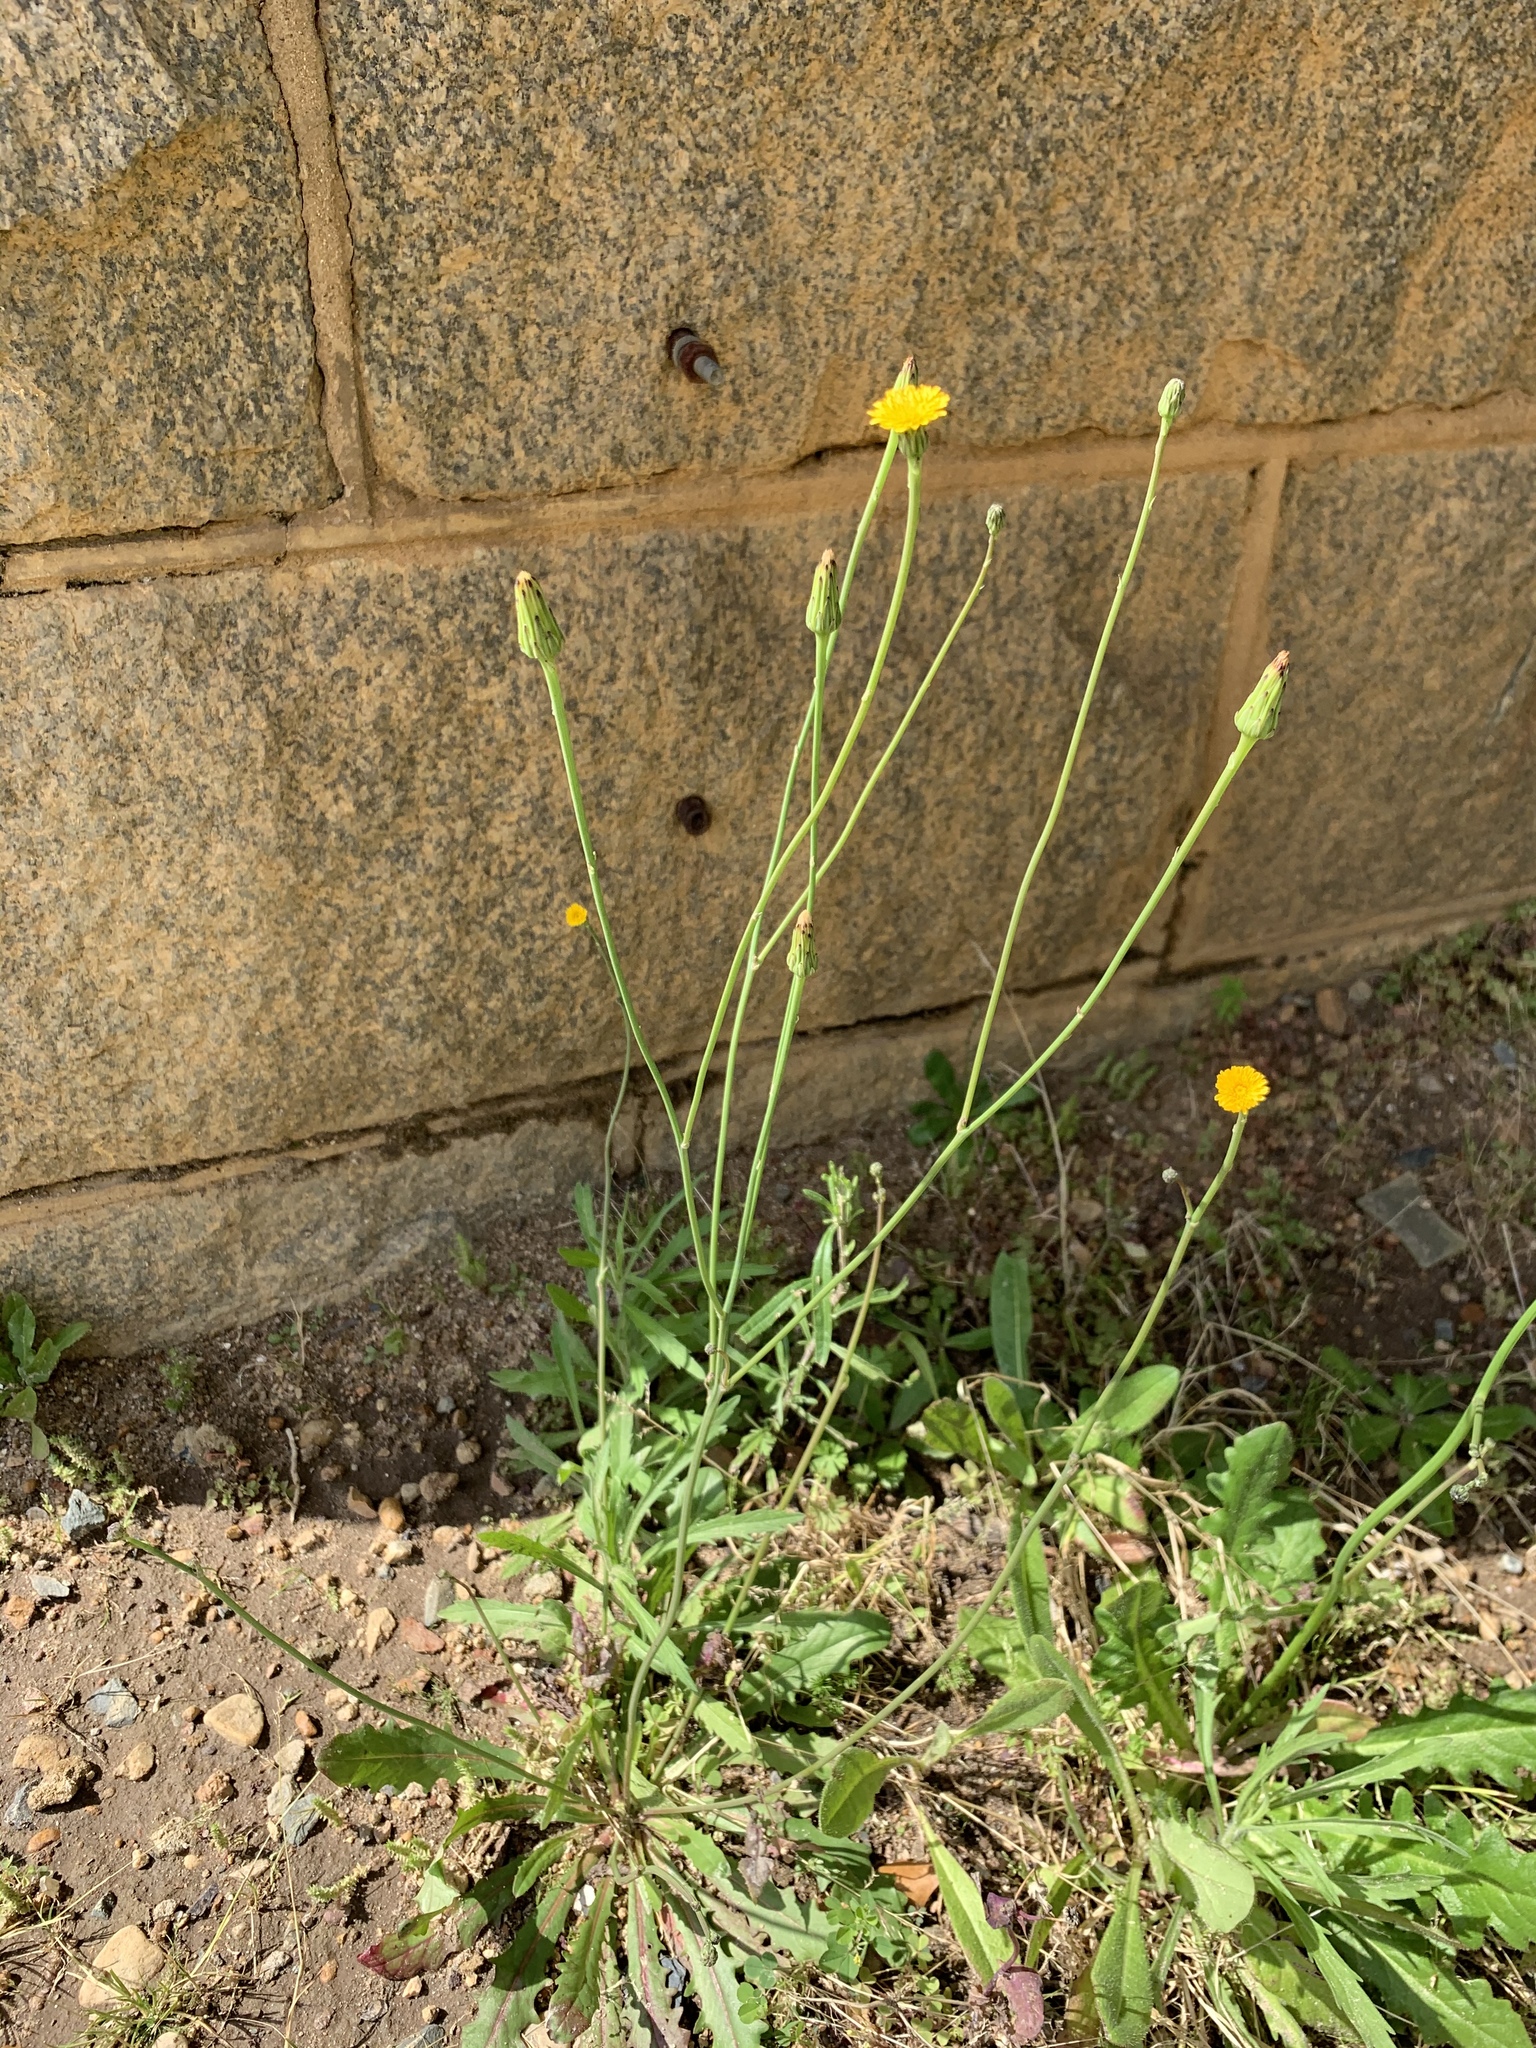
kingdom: Plantae
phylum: Tracheophyta
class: Magnoliopsida
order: Asterales
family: Asteraceae
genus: Hypochaeris
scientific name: Hypochaeris radicata
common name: Flatweed
